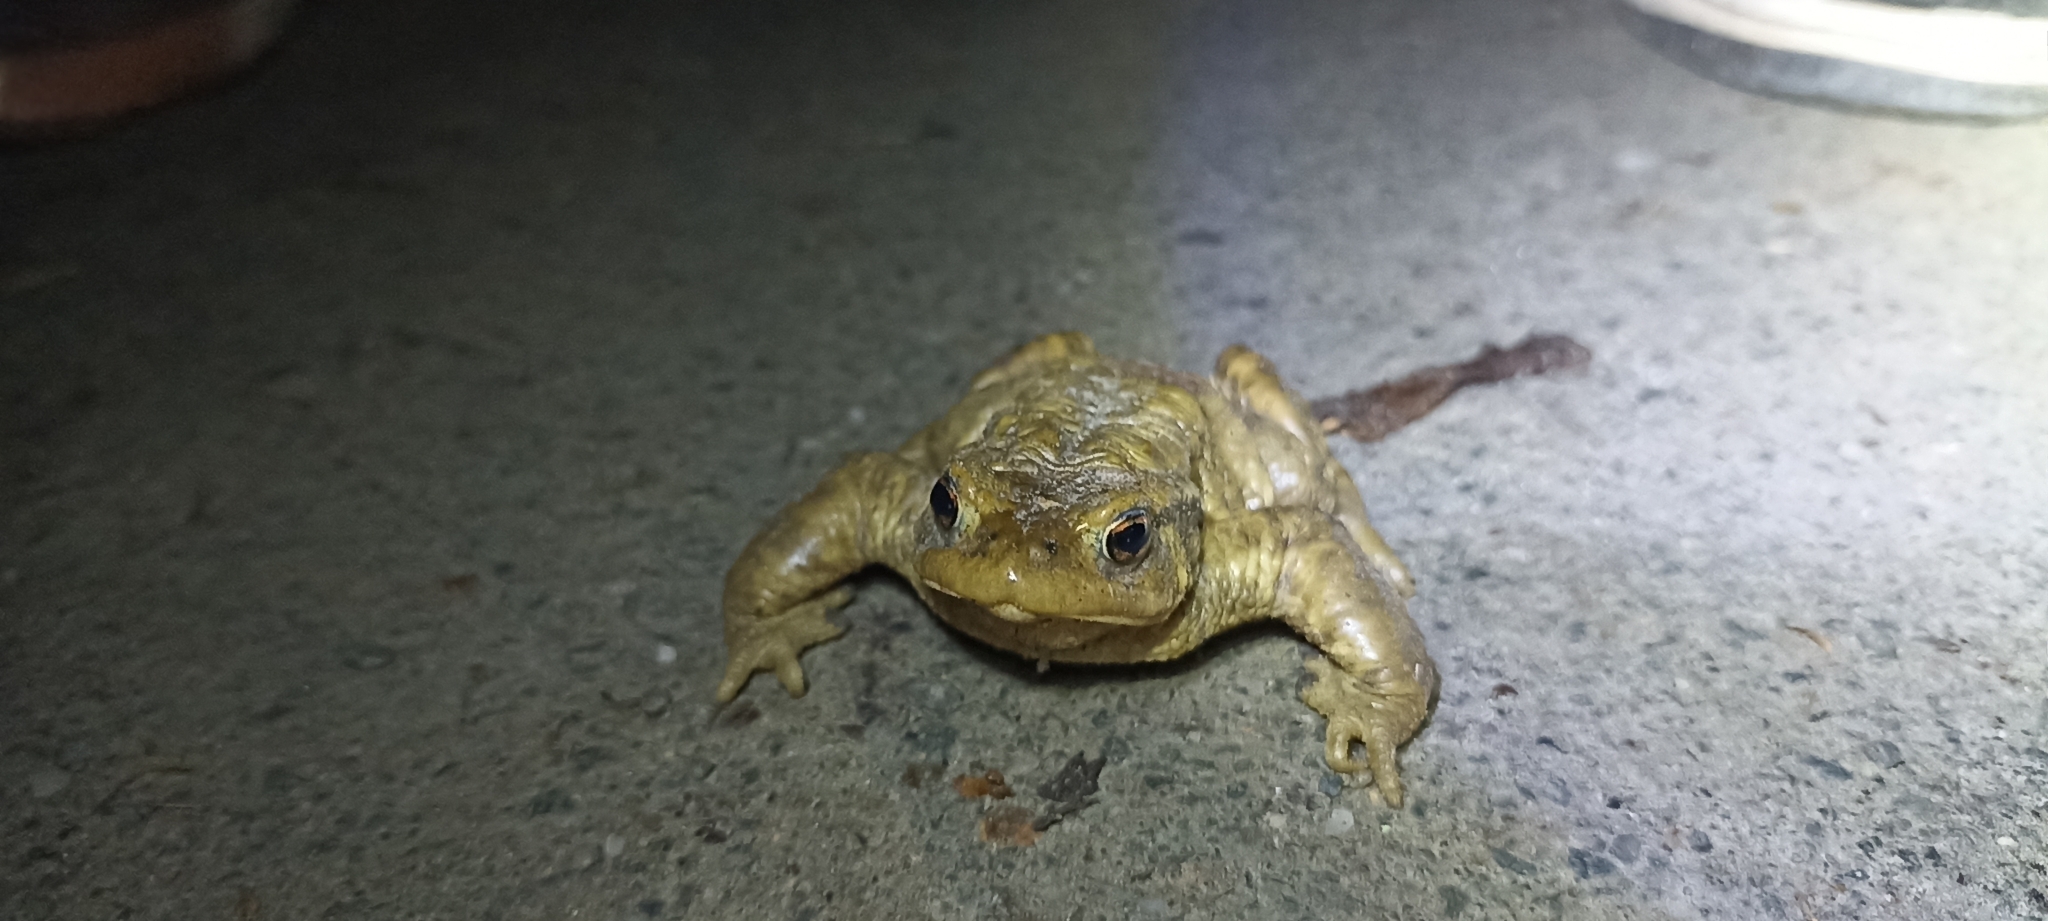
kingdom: Animalia
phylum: Chordata
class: Amphibia
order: Anura
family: Bufonidae
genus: Bufo
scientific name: Bufo spinosus
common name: Western common toad
